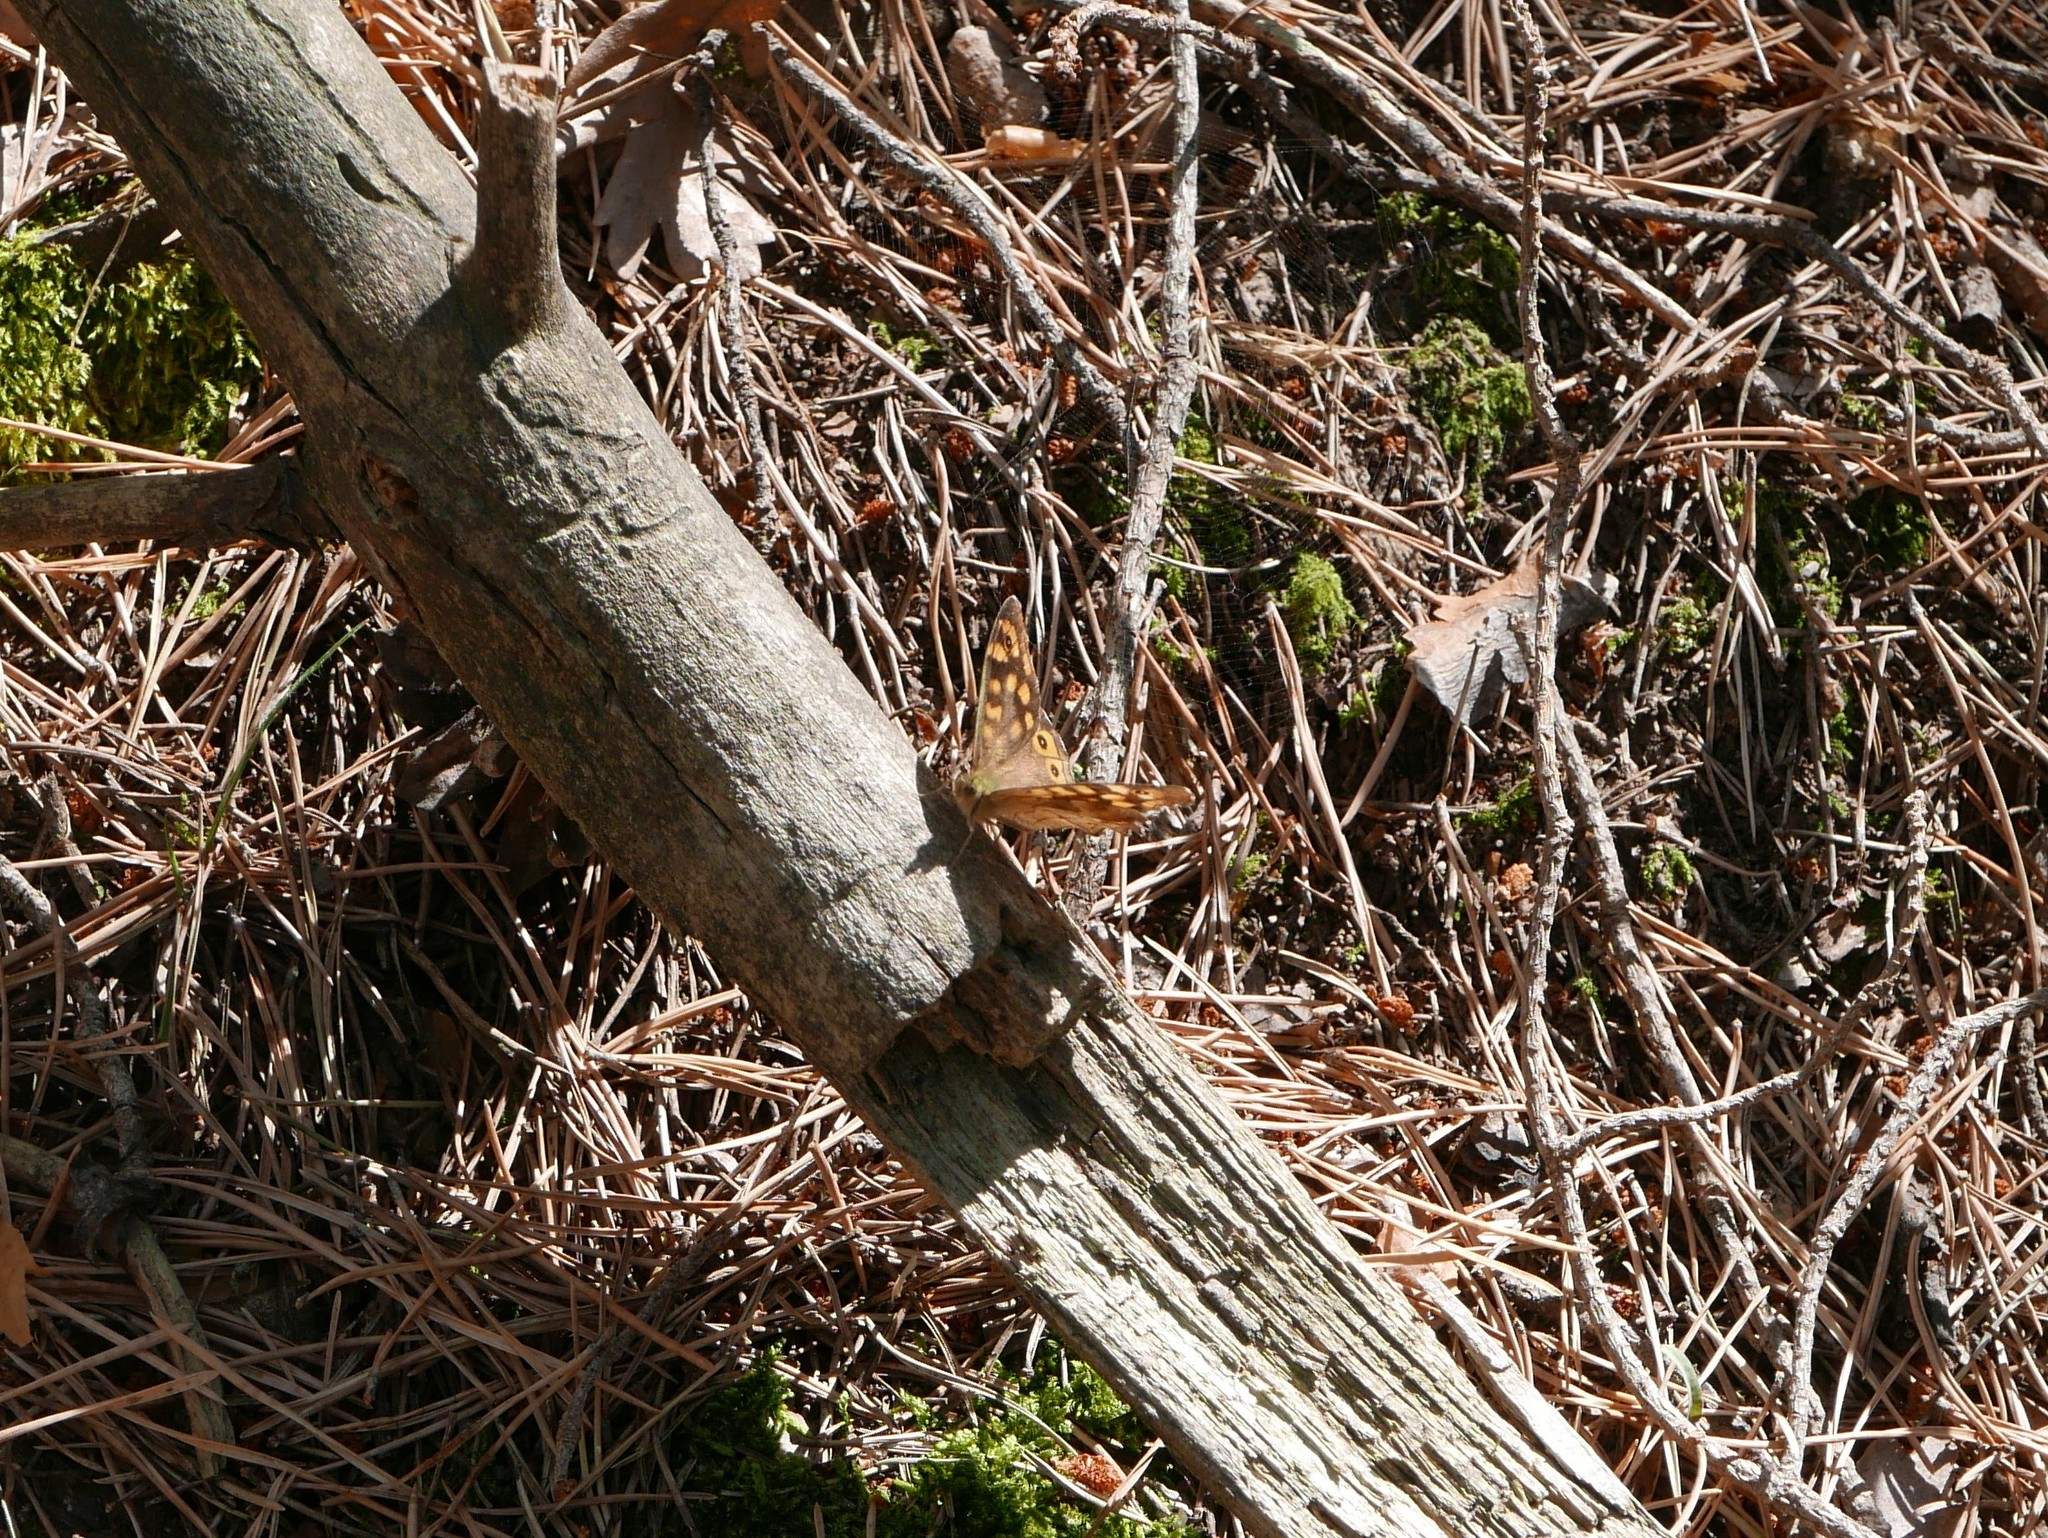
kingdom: Animalia
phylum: Arthropoda
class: Insecta
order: Lepidoptera
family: Nymphalidae
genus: Pararge
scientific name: Pararge aegeria
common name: Speckled wood
